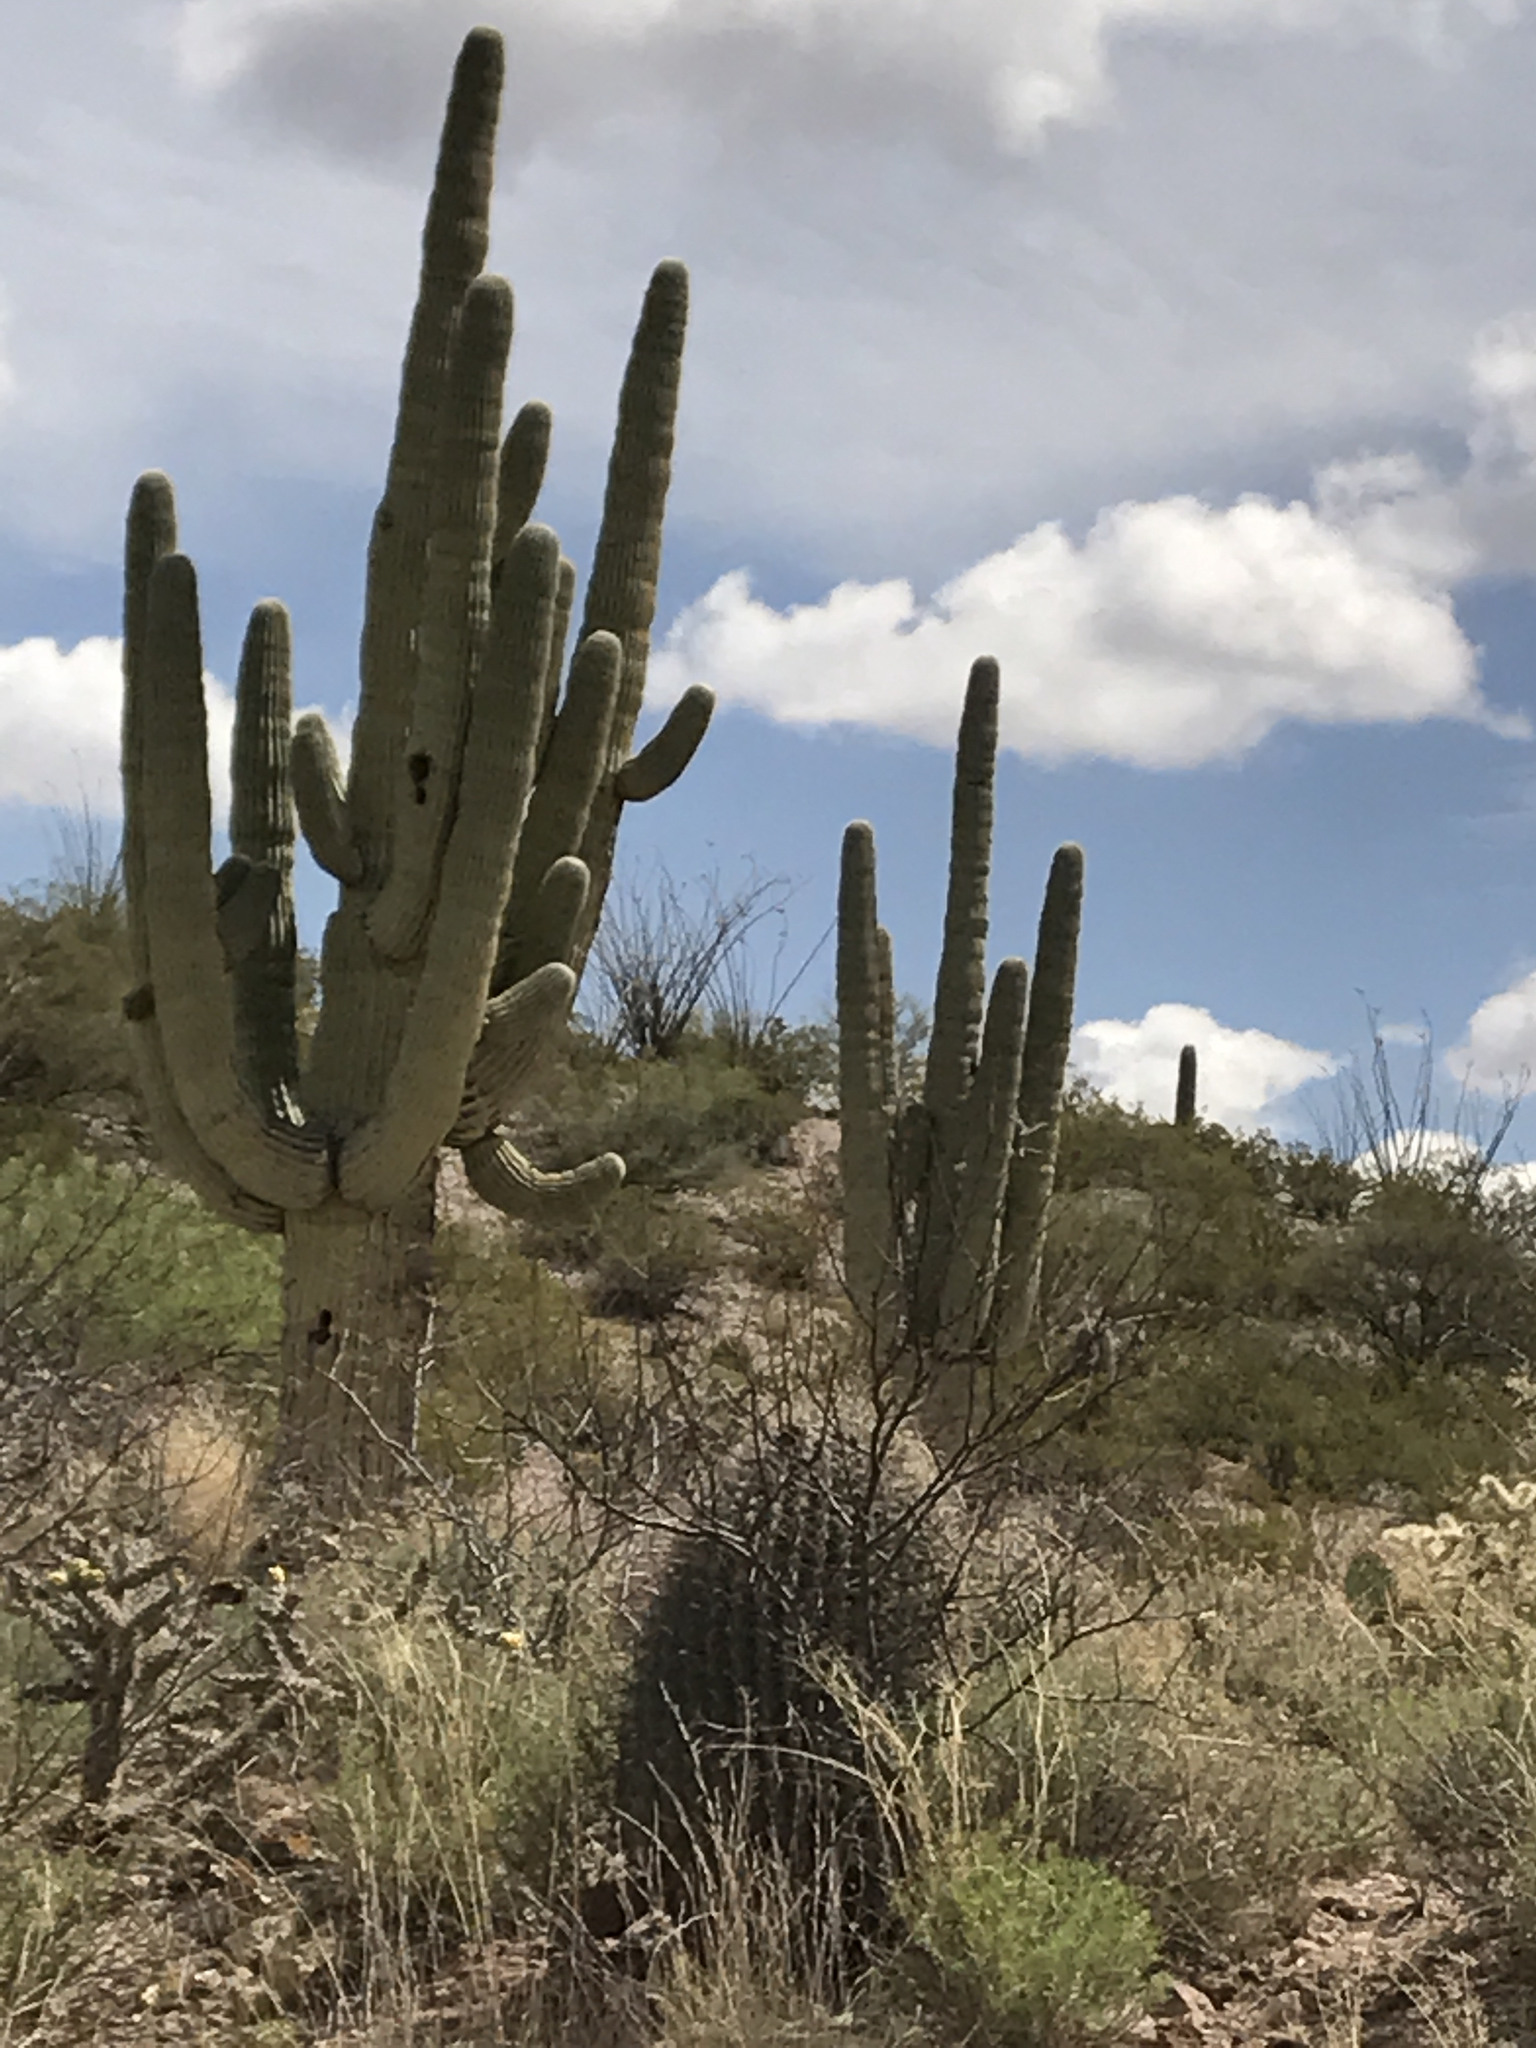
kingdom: Plantae
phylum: Tracheophyta
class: Magnoliopsida
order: Caryophyllales
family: Cactaceae
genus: Carnegiea
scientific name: Carnegiea gigantea
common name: Saguaro
